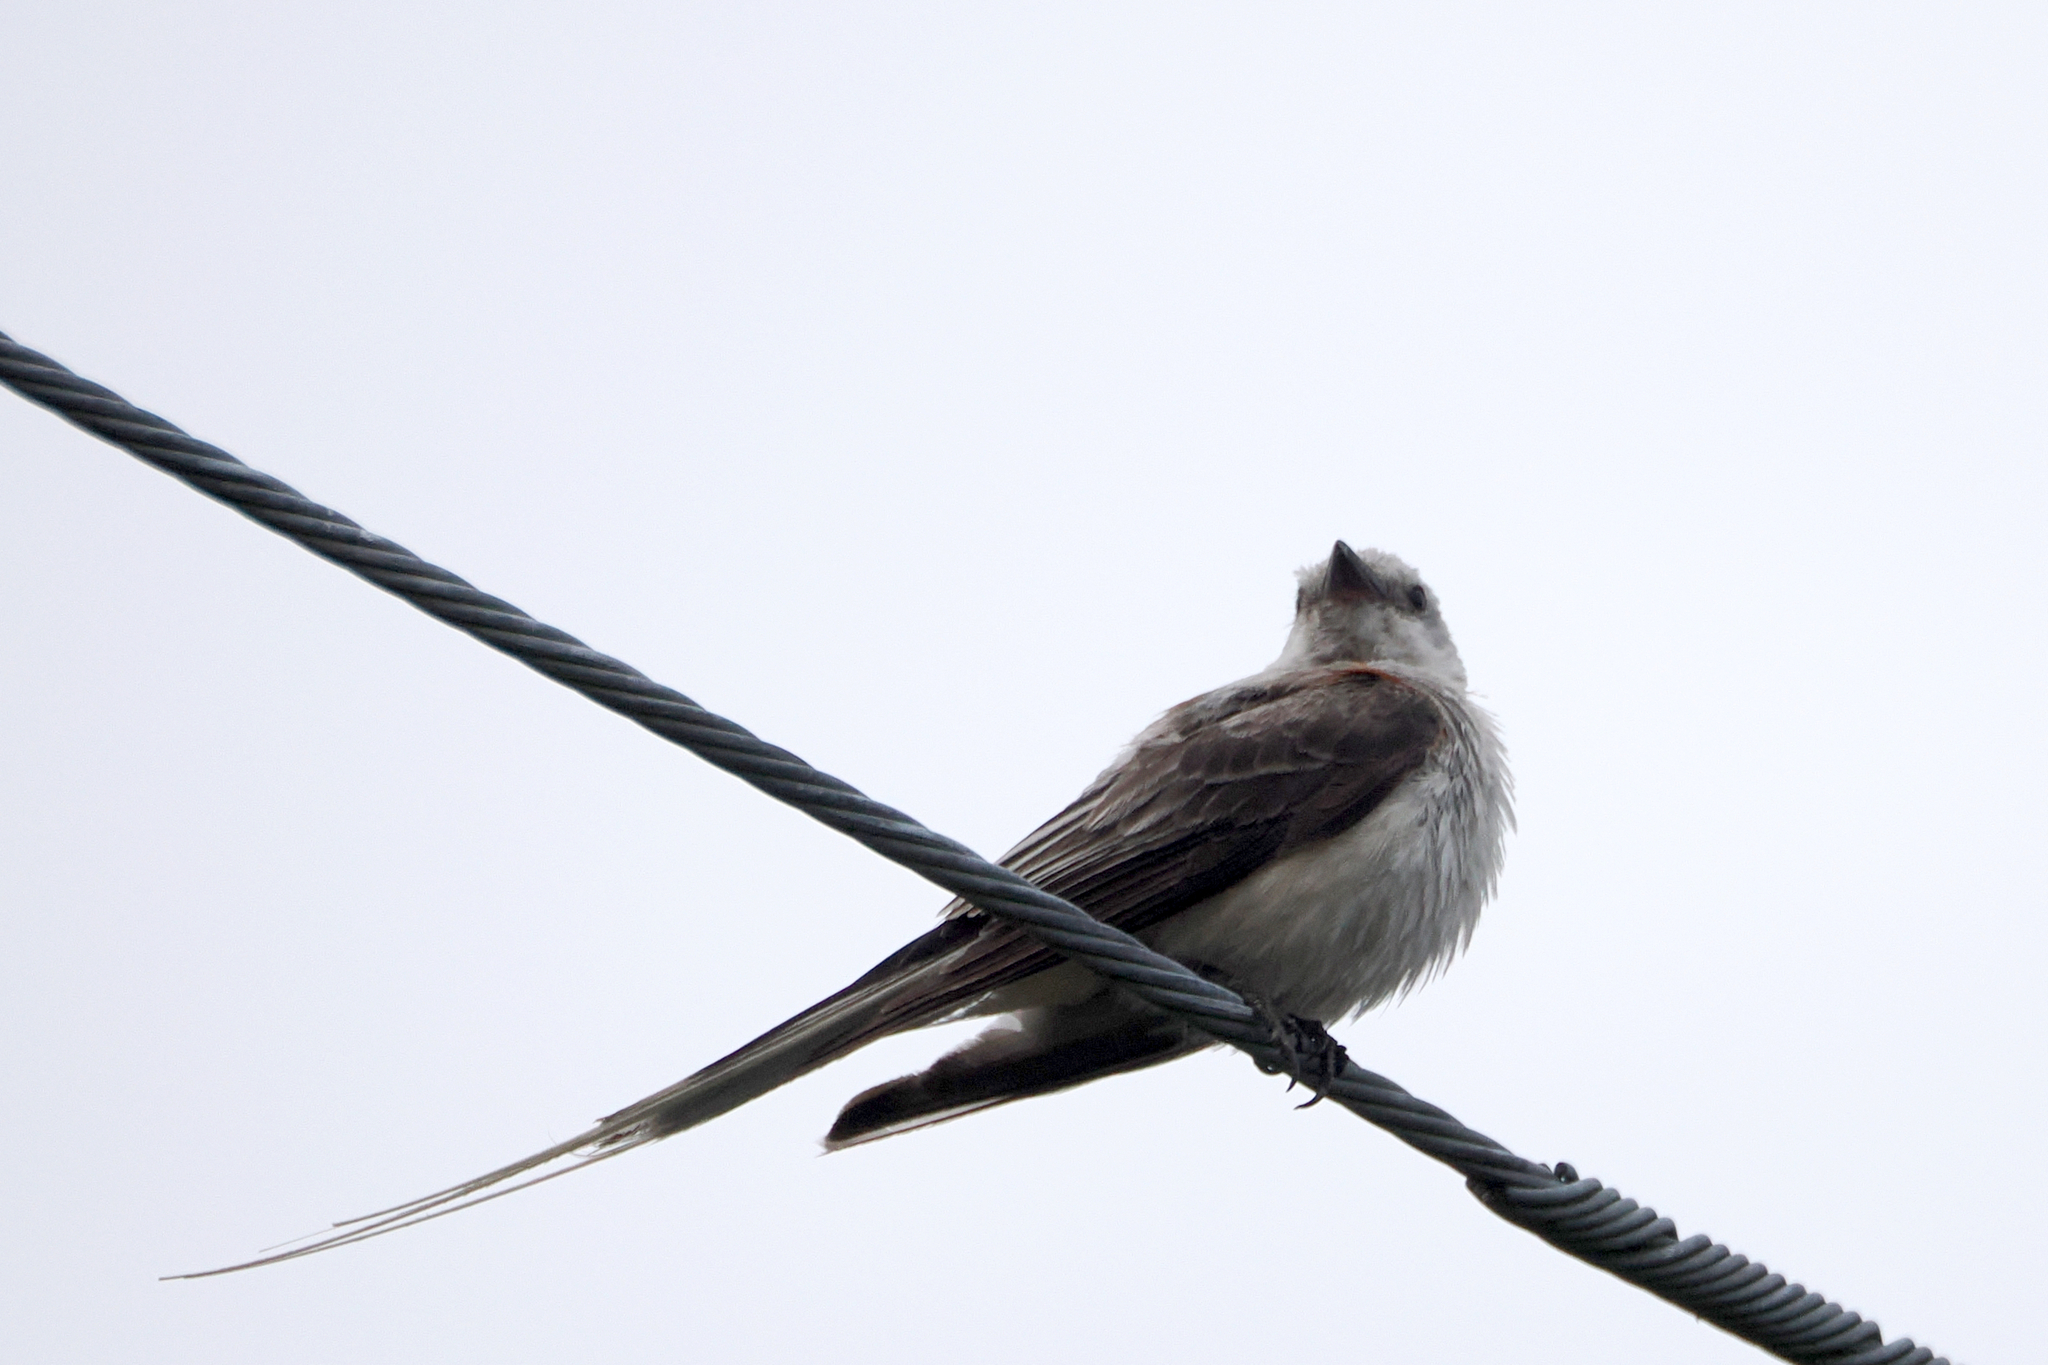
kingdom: Animalia
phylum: Chordata
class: Aves
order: Passeriformes
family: Tyrannidae
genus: Tyrannus
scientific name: Tyrannus forficatus
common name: Scissor-tailed flycatcher
